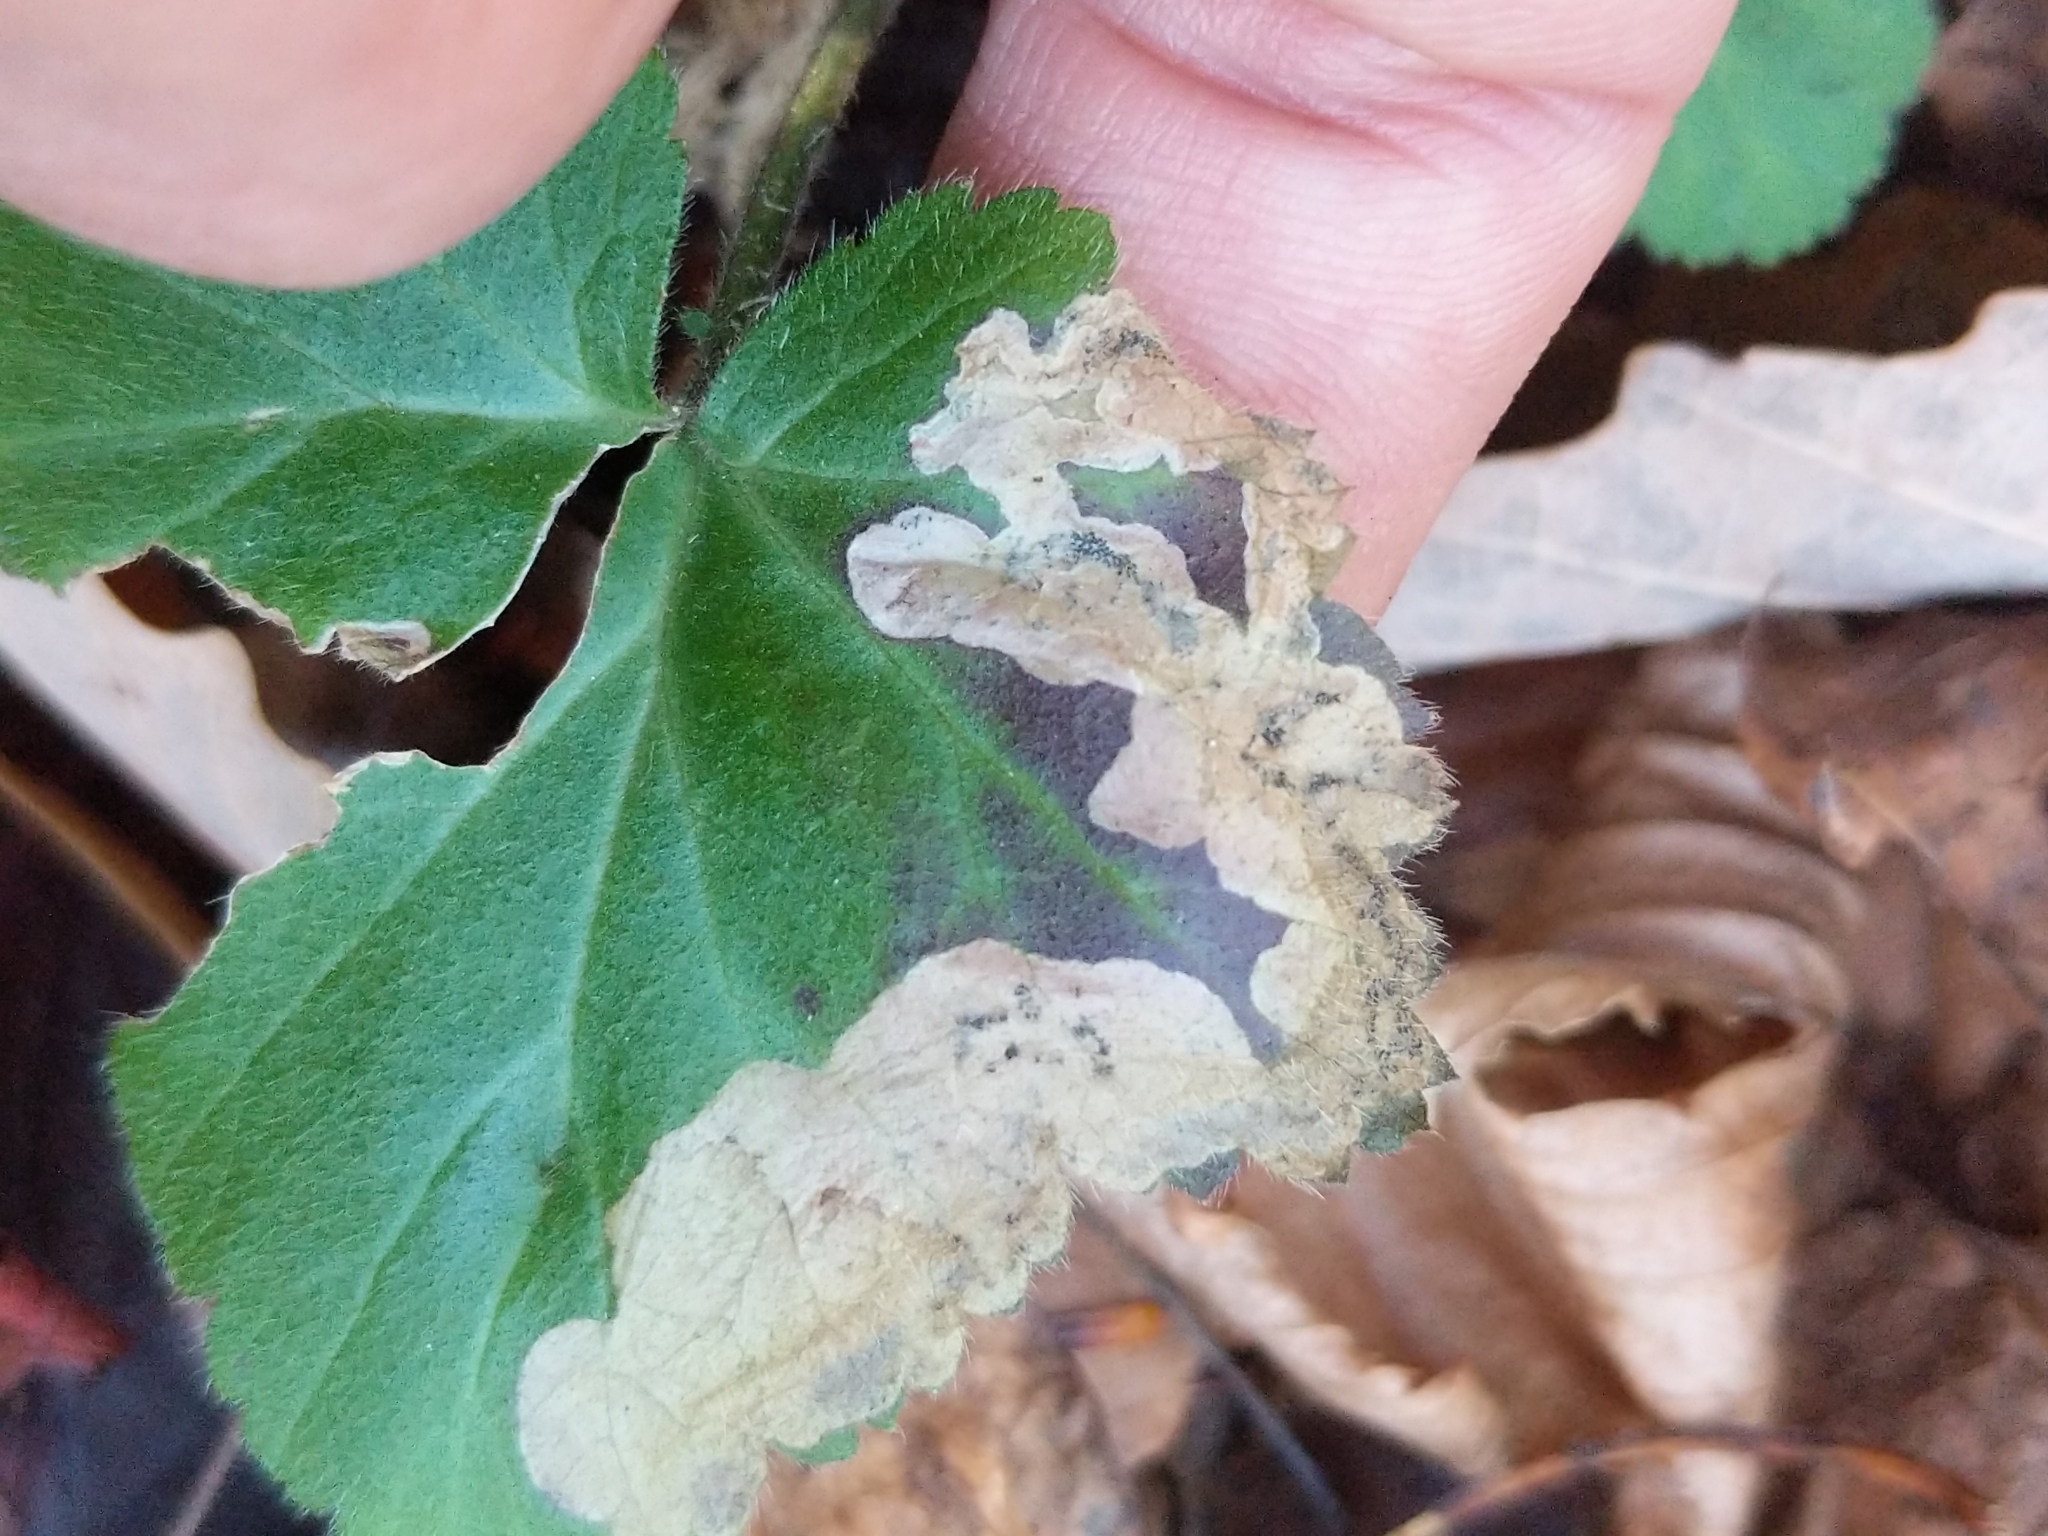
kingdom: Animalia
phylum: Arthropoda
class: Insecta
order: Hymenoptera
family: Tenthredinidae
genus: Metallus
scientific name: Metallus lanceolatus
